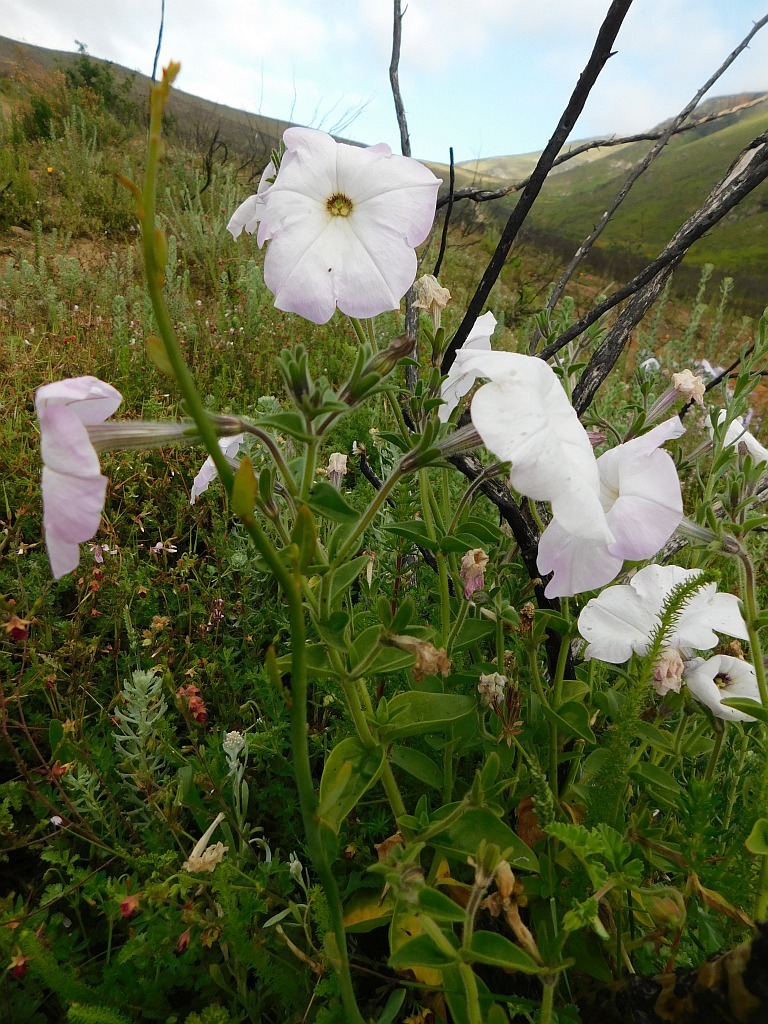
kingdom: Plantae
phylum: Tracheophyta
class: Magnoliopsida
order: Solanales
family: Solanaceae
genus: Petunia
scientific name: Petunia atkinsiana
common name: Petunia
